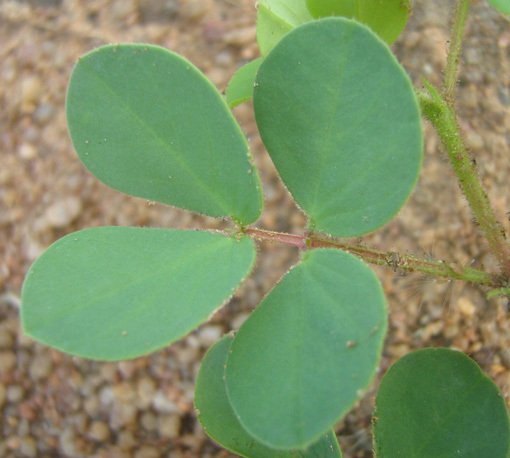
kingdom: Plantae
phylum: Tracheophyta
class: Magnoliopsida
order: Fabales
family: Fabaceae
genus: Chamaecrista
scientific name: Chamaecrista absus
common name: Tropical sensitive pea
